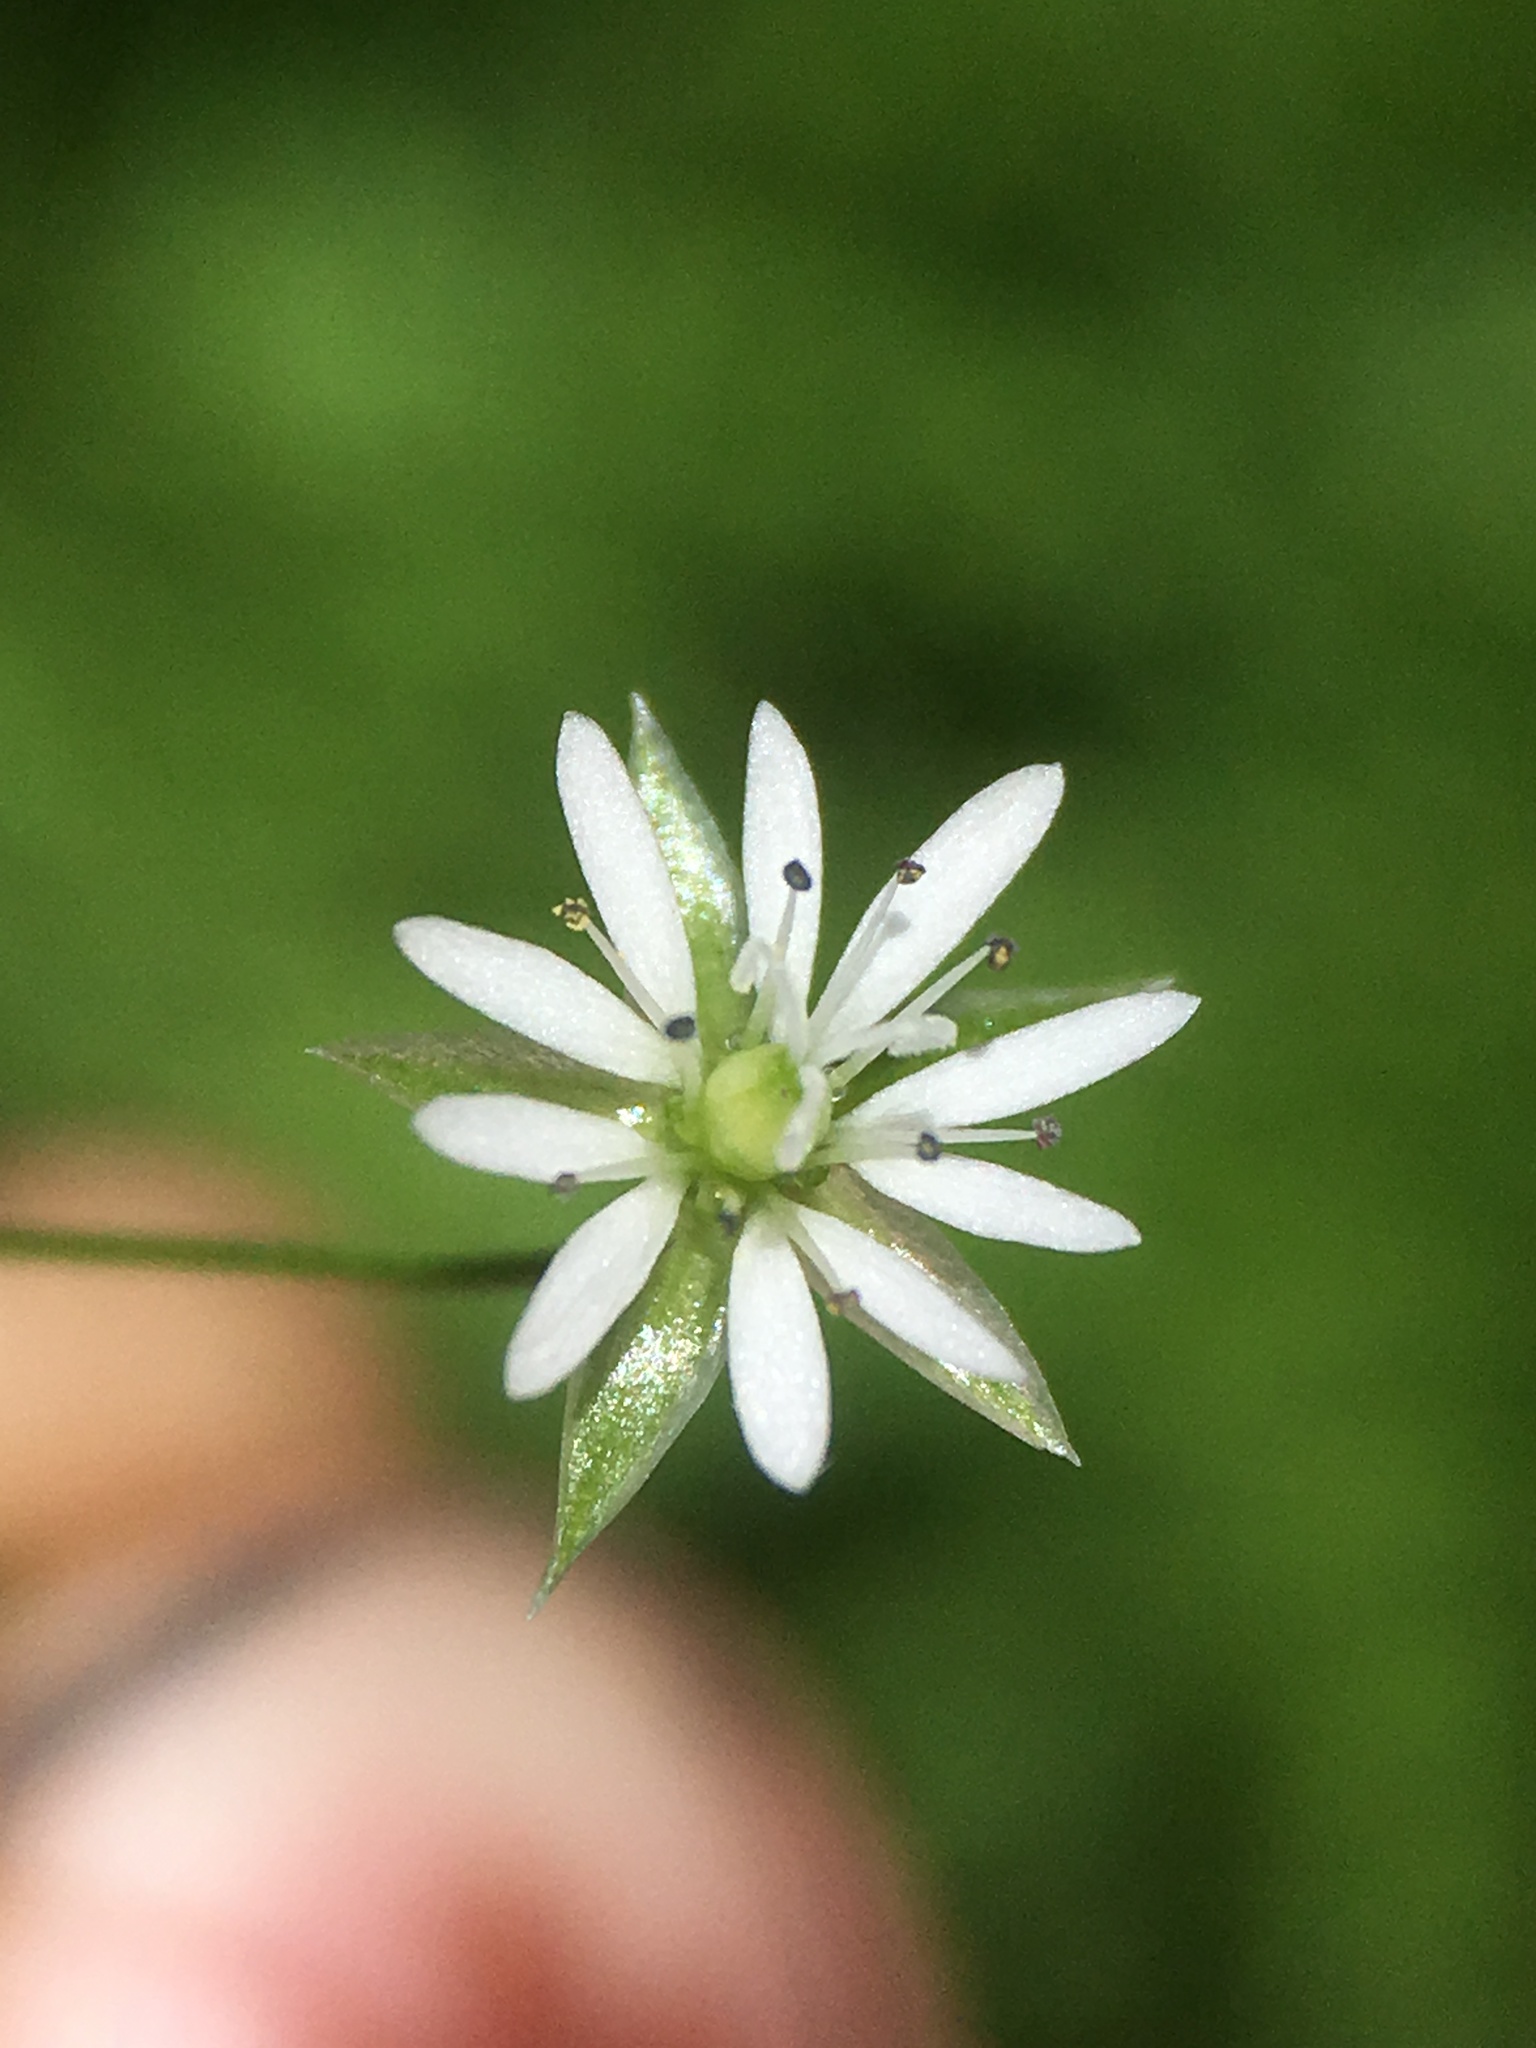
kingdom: Plantae
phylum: Tracheophyta
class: Magnoliopsida
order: Caryophyllales
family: Caryophyllaceae
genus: Stellaria
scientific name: Stellaria longipes
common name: Goldie's starwort
